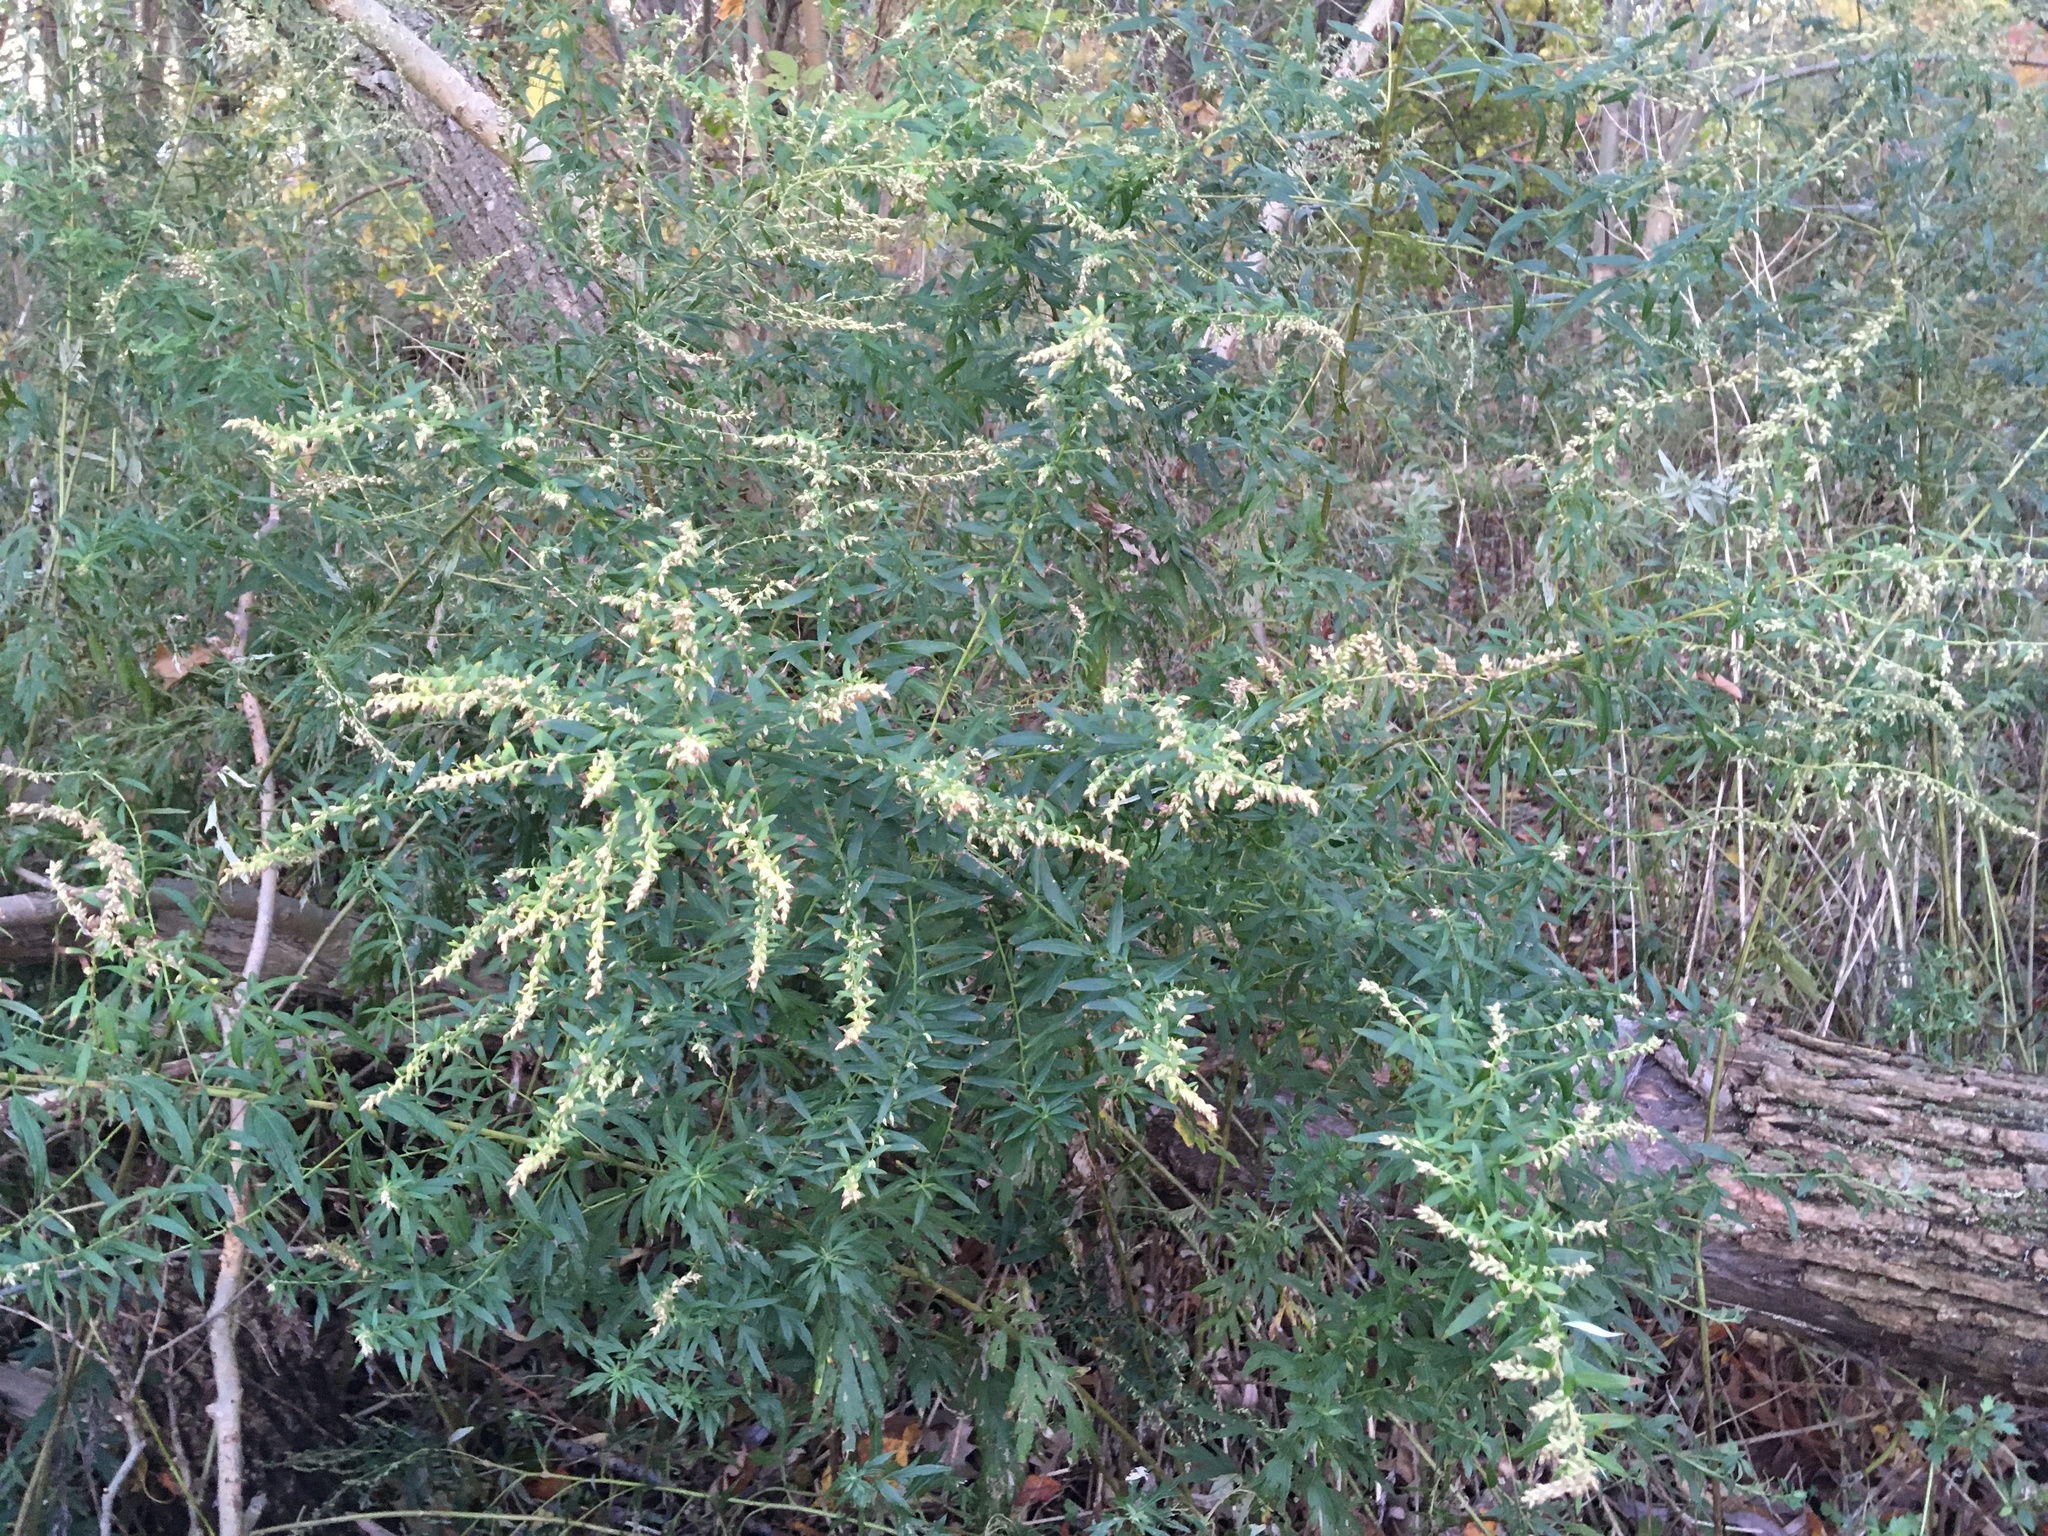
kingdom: Plantae
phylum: Tracheophyta
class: Magnoliopsida
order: Asterales
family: Asteraceae
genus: Artemisia
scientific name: Artemisia vulgaris
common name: Mugwort
